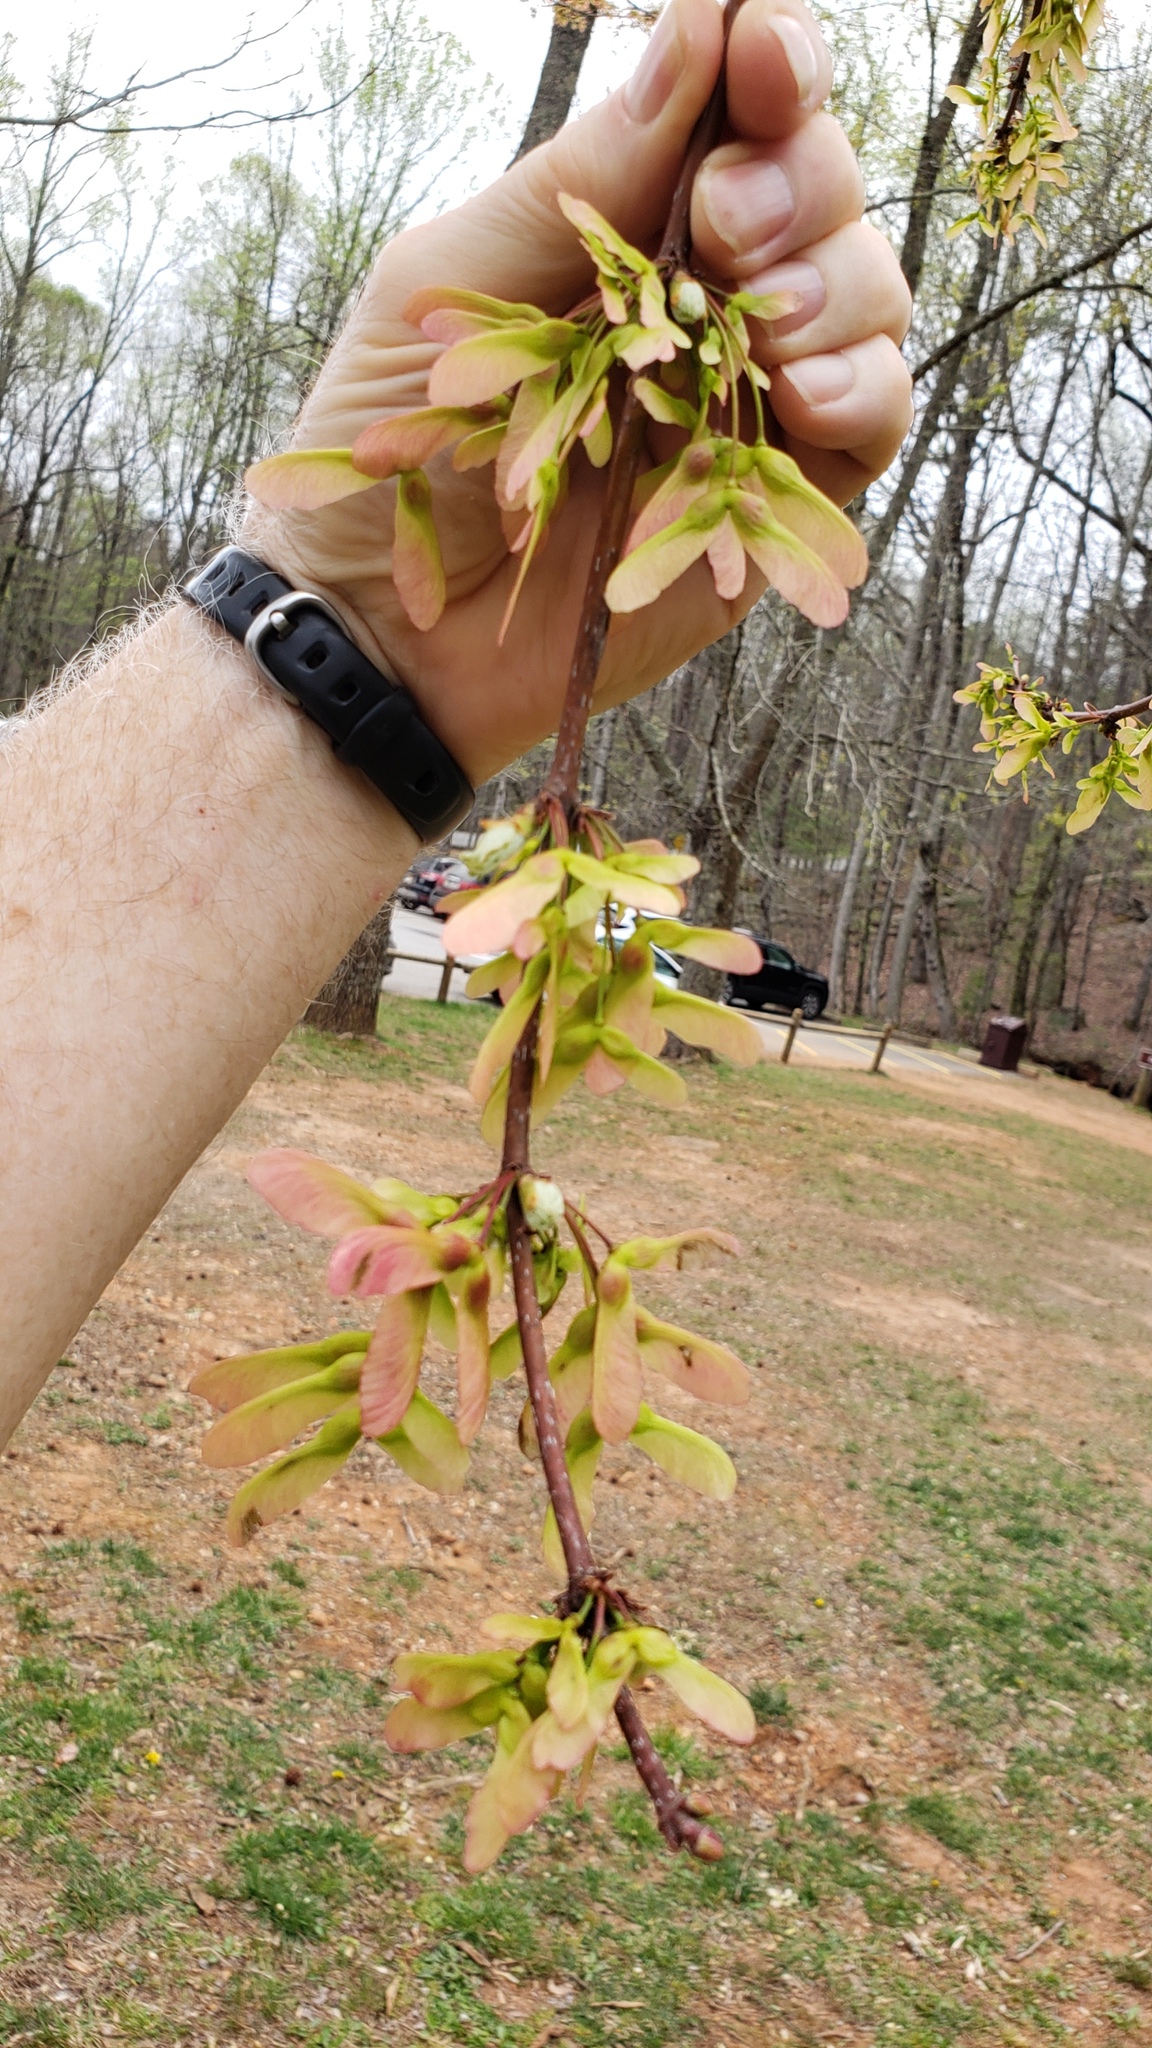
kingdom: Plantae
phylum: Tracheophyta
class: Magnoliopsida
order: Sapindales
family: Sapindaceae
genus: Acer
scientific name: Acer rubrum
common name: Red maple
